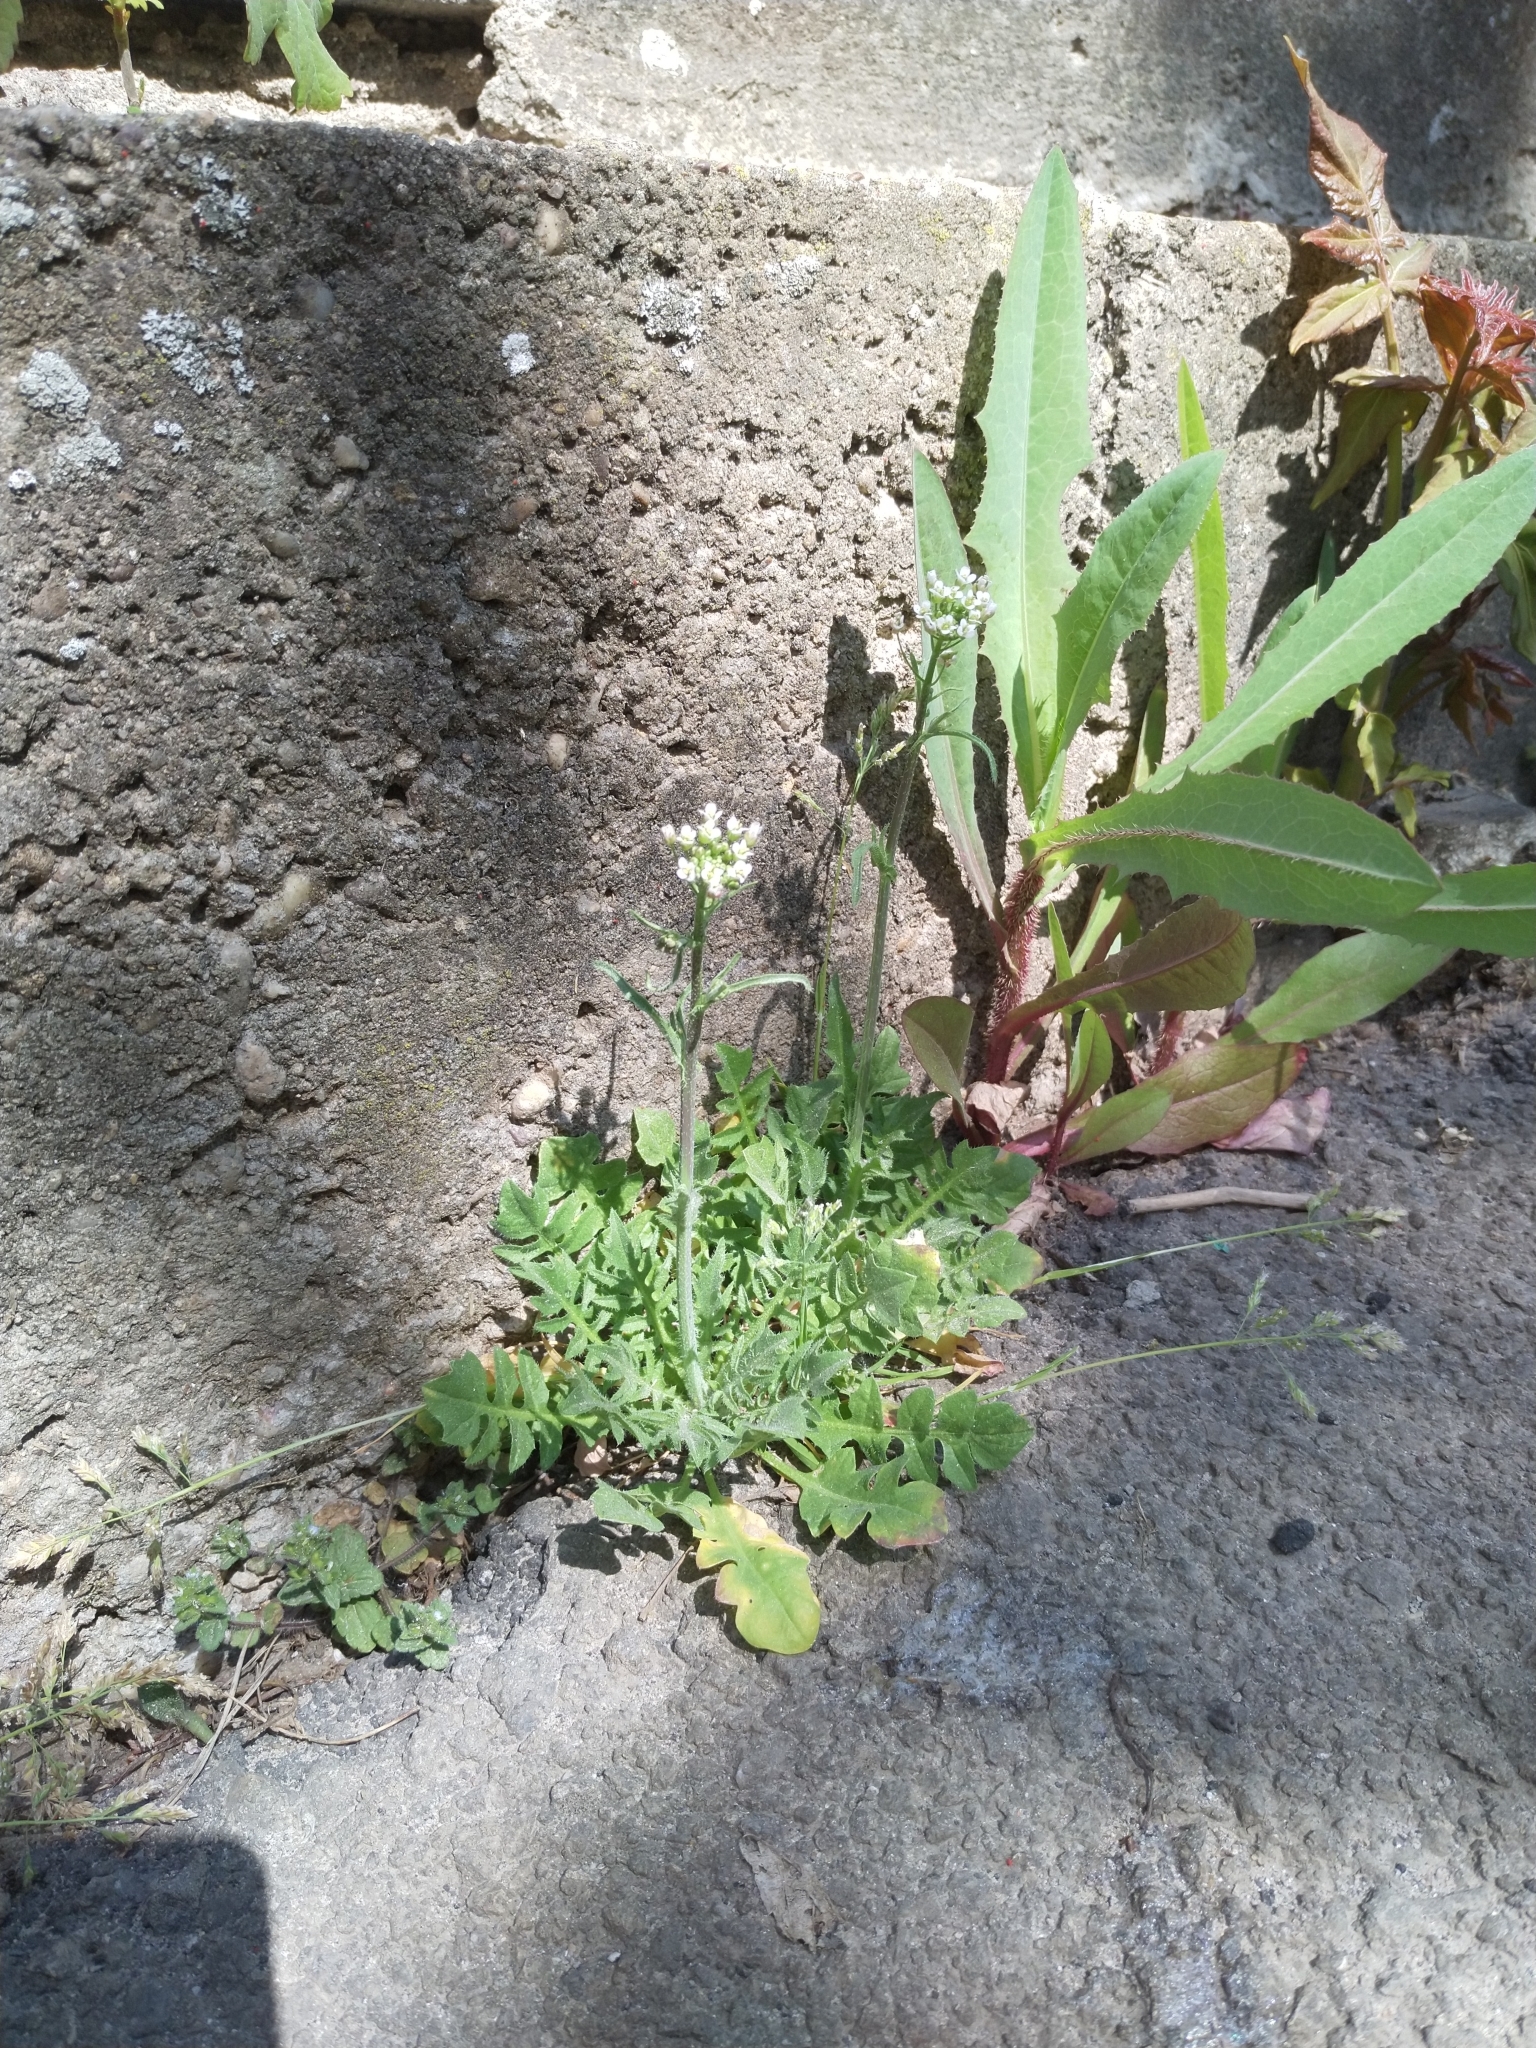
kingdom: Plantae
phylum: Tracheophyta
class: Magnoliopsida
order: Brassicales
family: Brassicaceae
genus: Capsella
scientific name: Capsella bursa-pastoris
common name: Shepherd's purse
